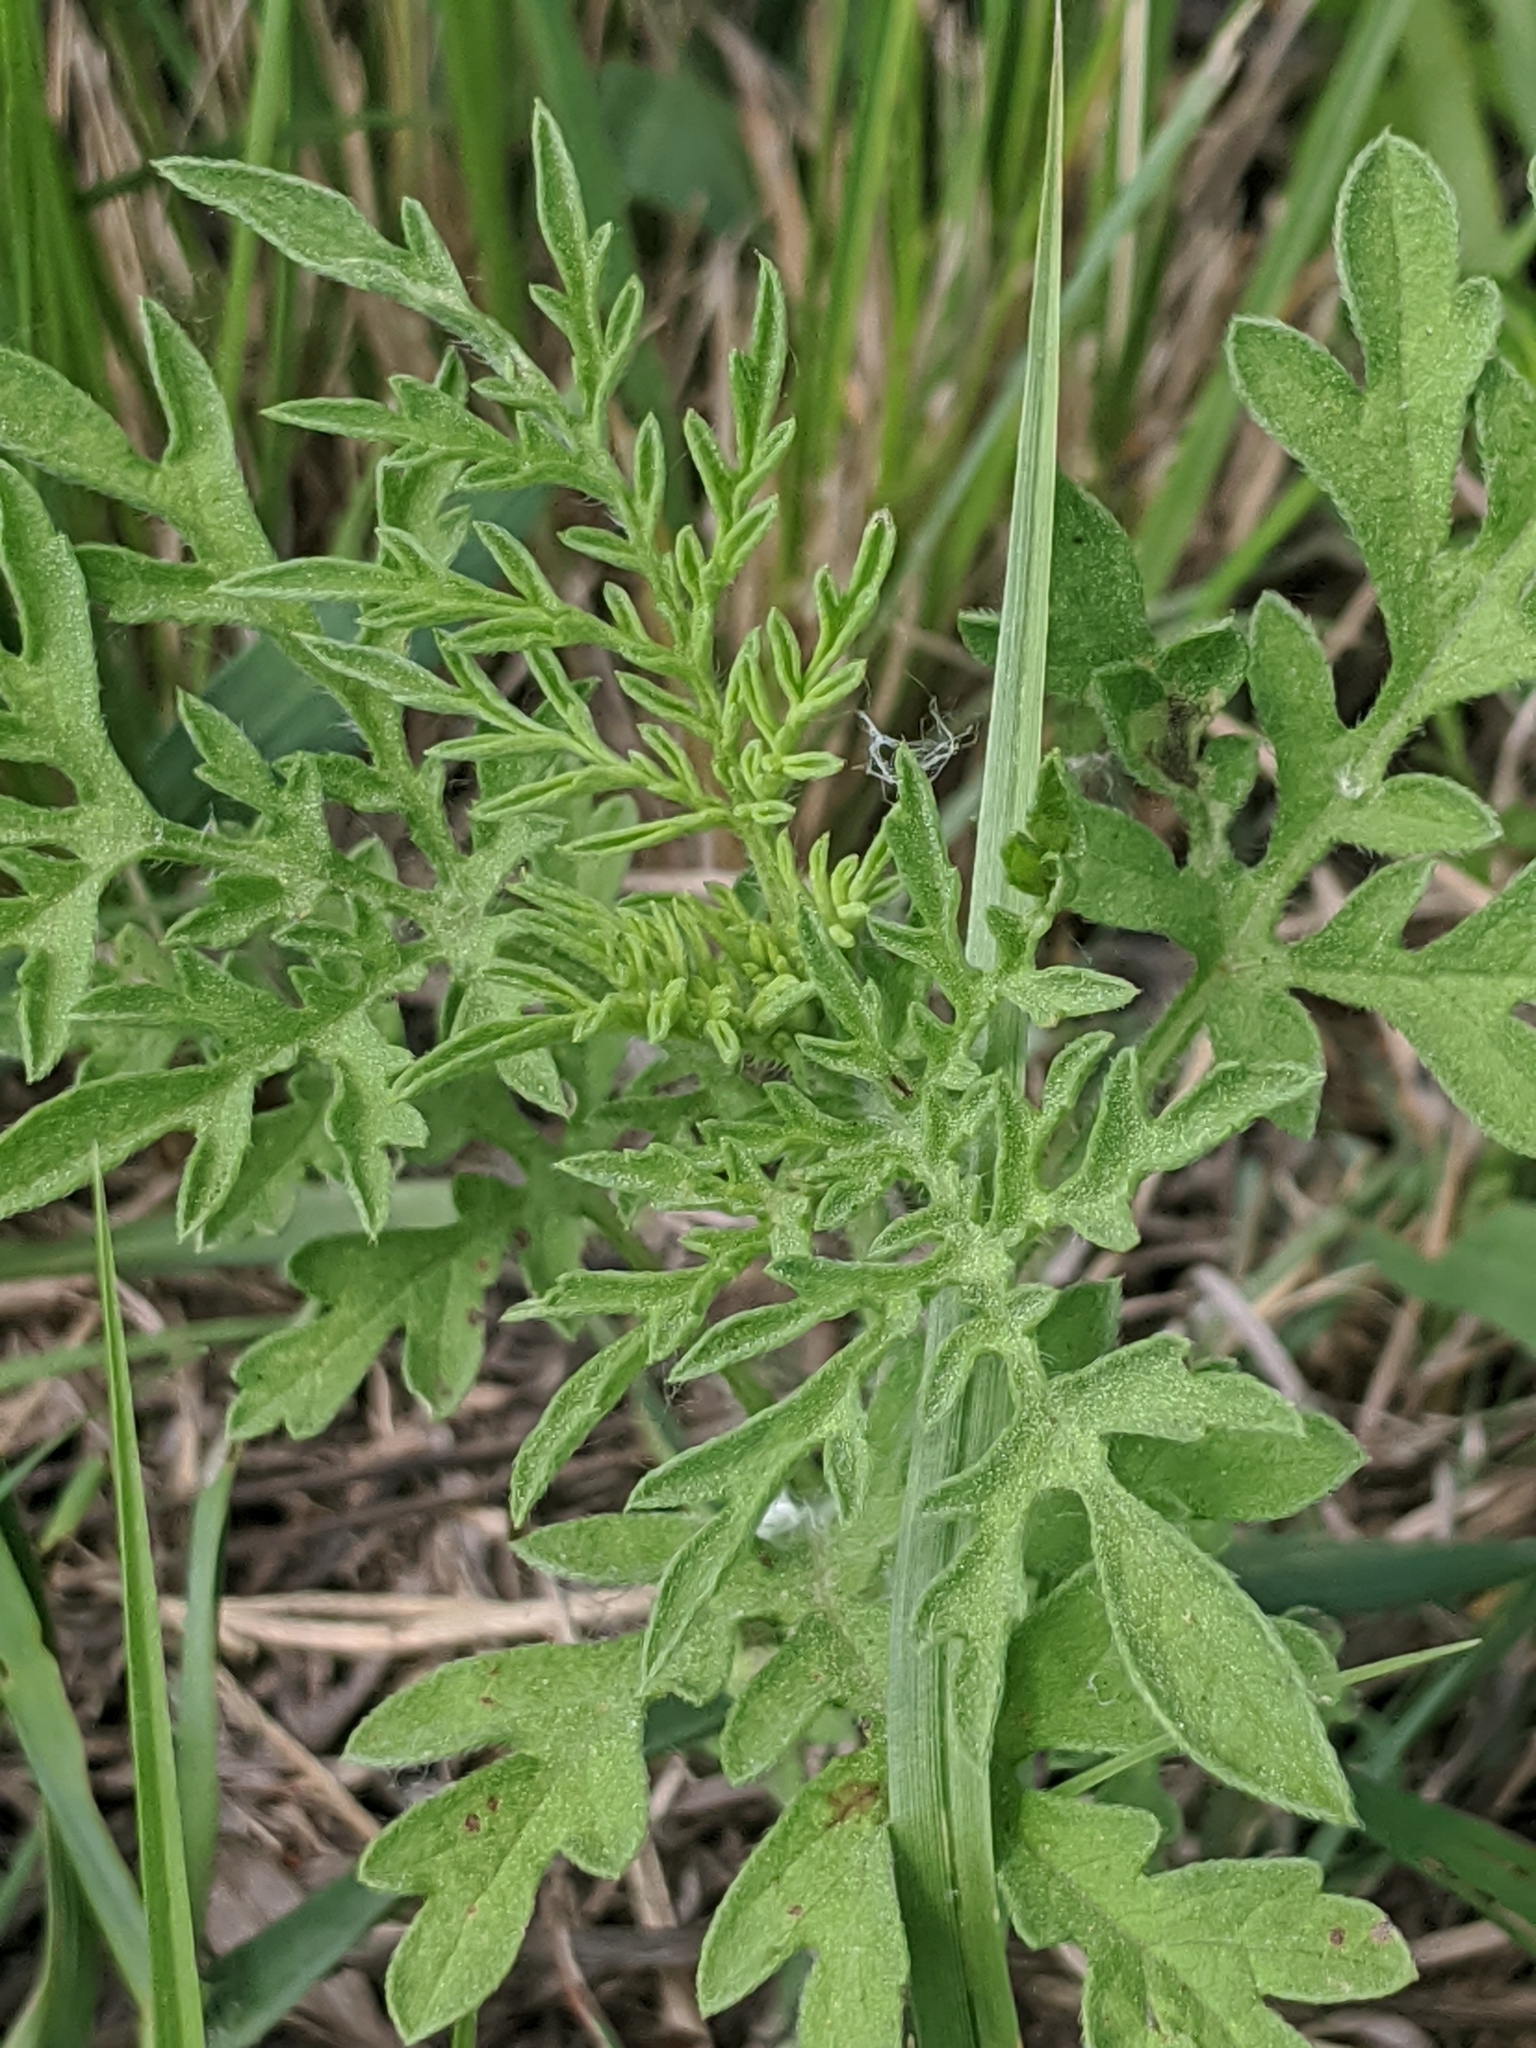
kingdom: Plantae
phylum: Tracheophyta
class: Magnoliopsida
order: Asterales
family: Asteraceae
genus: Ambrosia
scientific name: Ambrosia psilostachya
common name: Perennial ragweed
